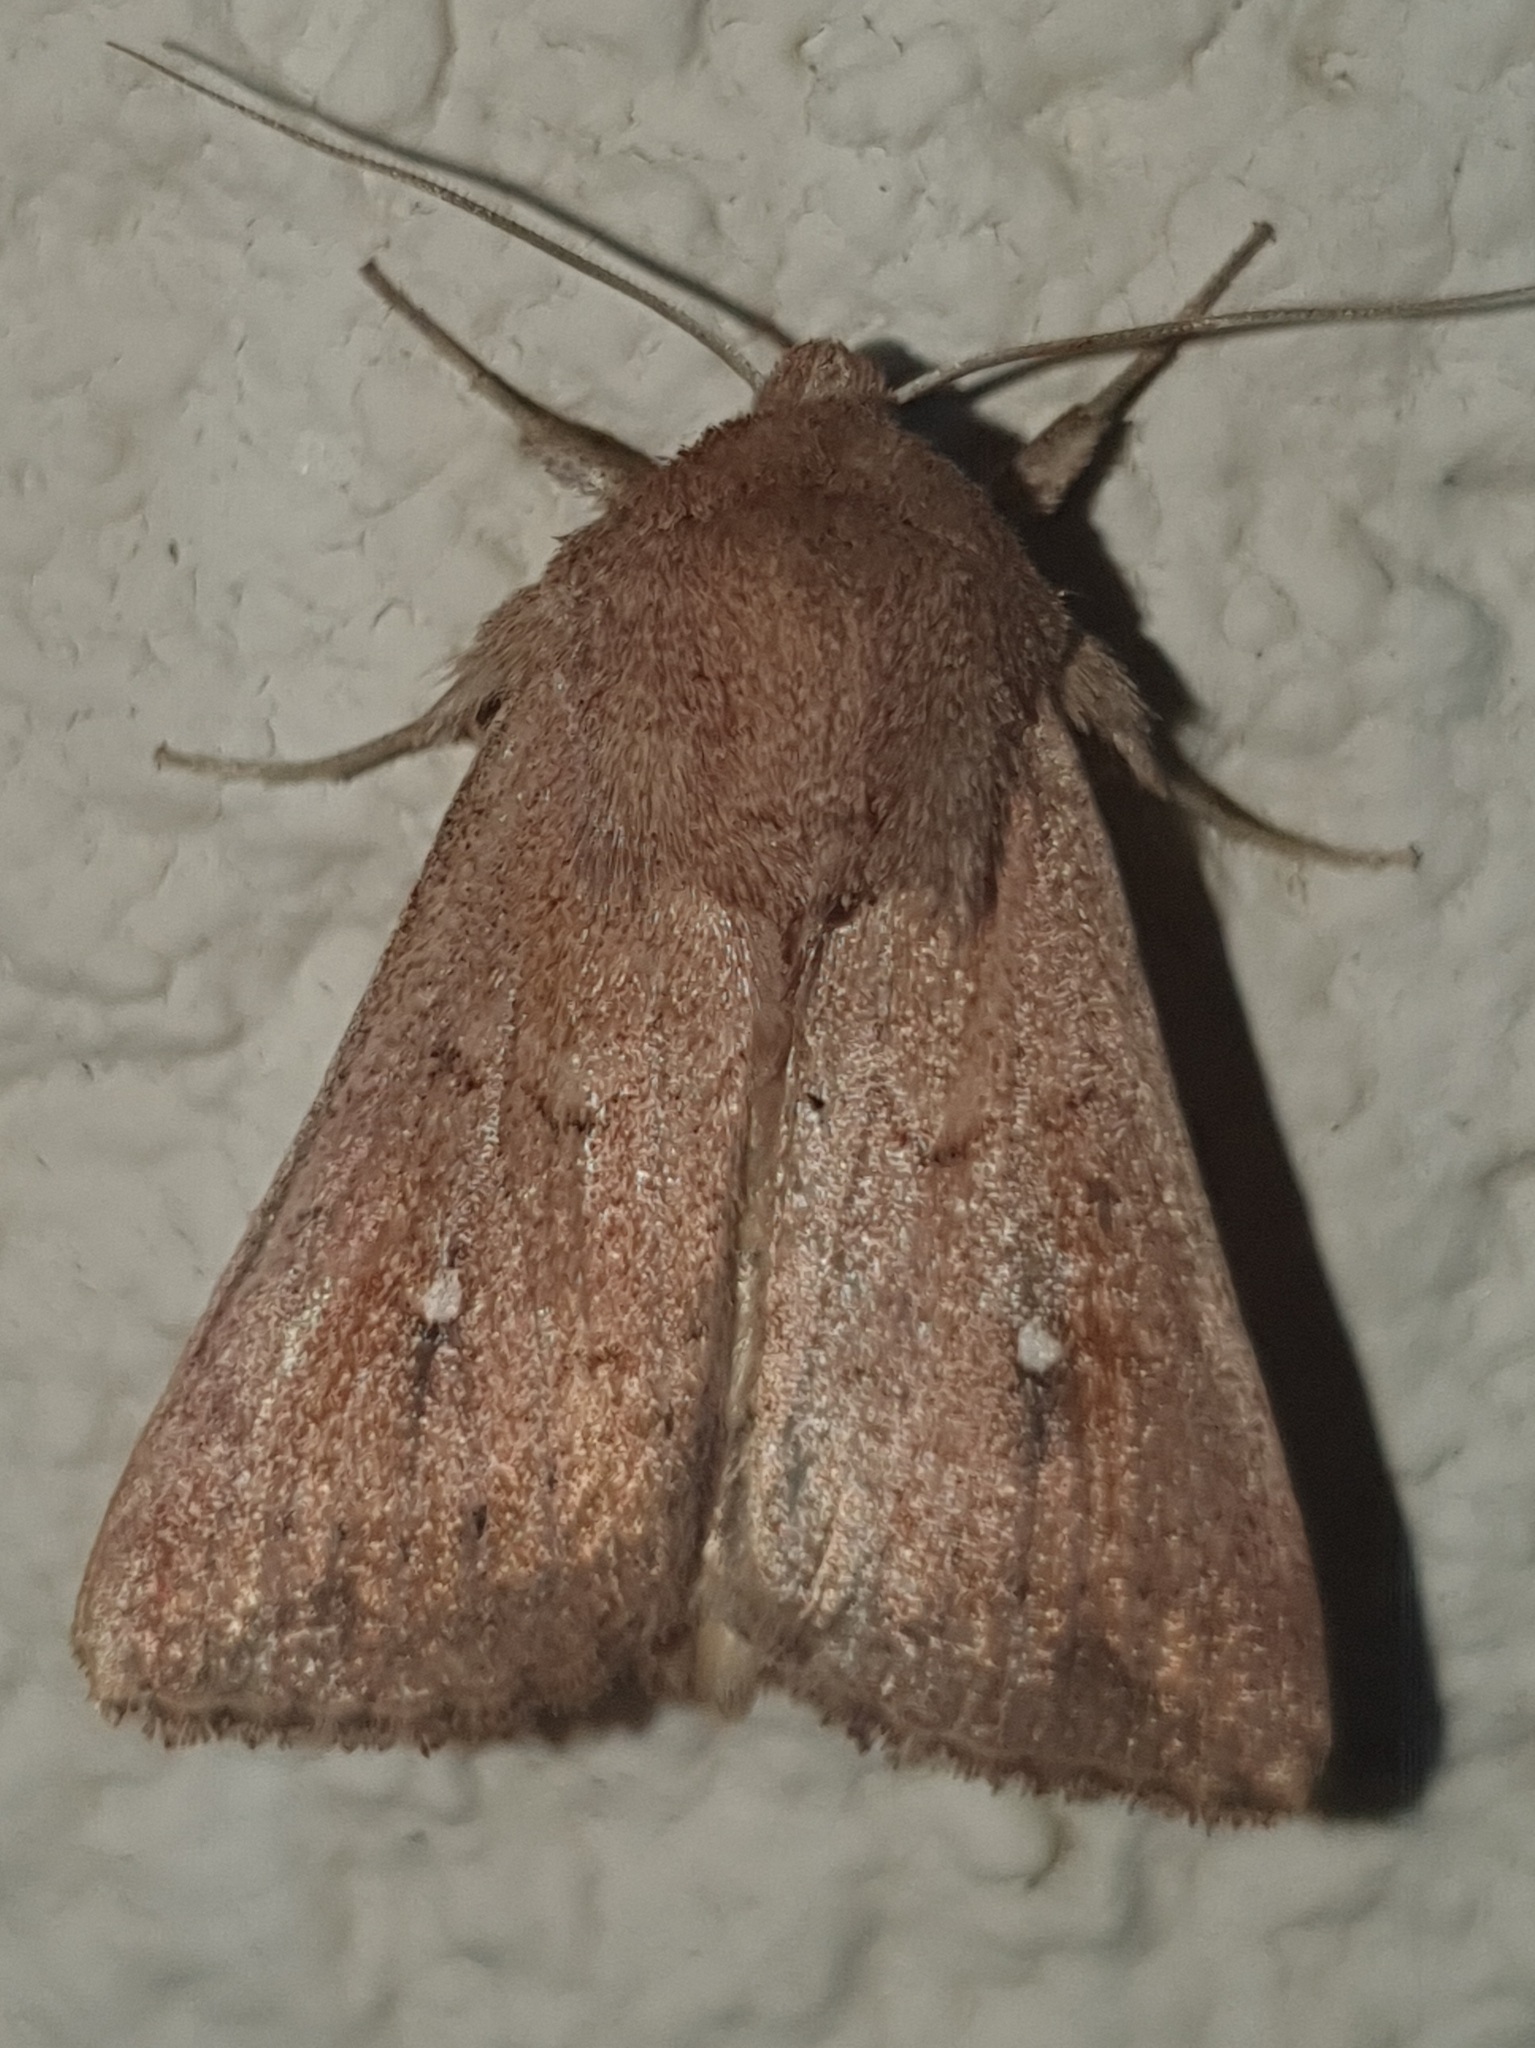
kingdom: Animalia
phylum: Arthropoda
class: Insecta
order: Lepidoptera
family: Noctuidae
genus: Mythimna
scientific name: Mythimna albipuncta
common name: White-point
